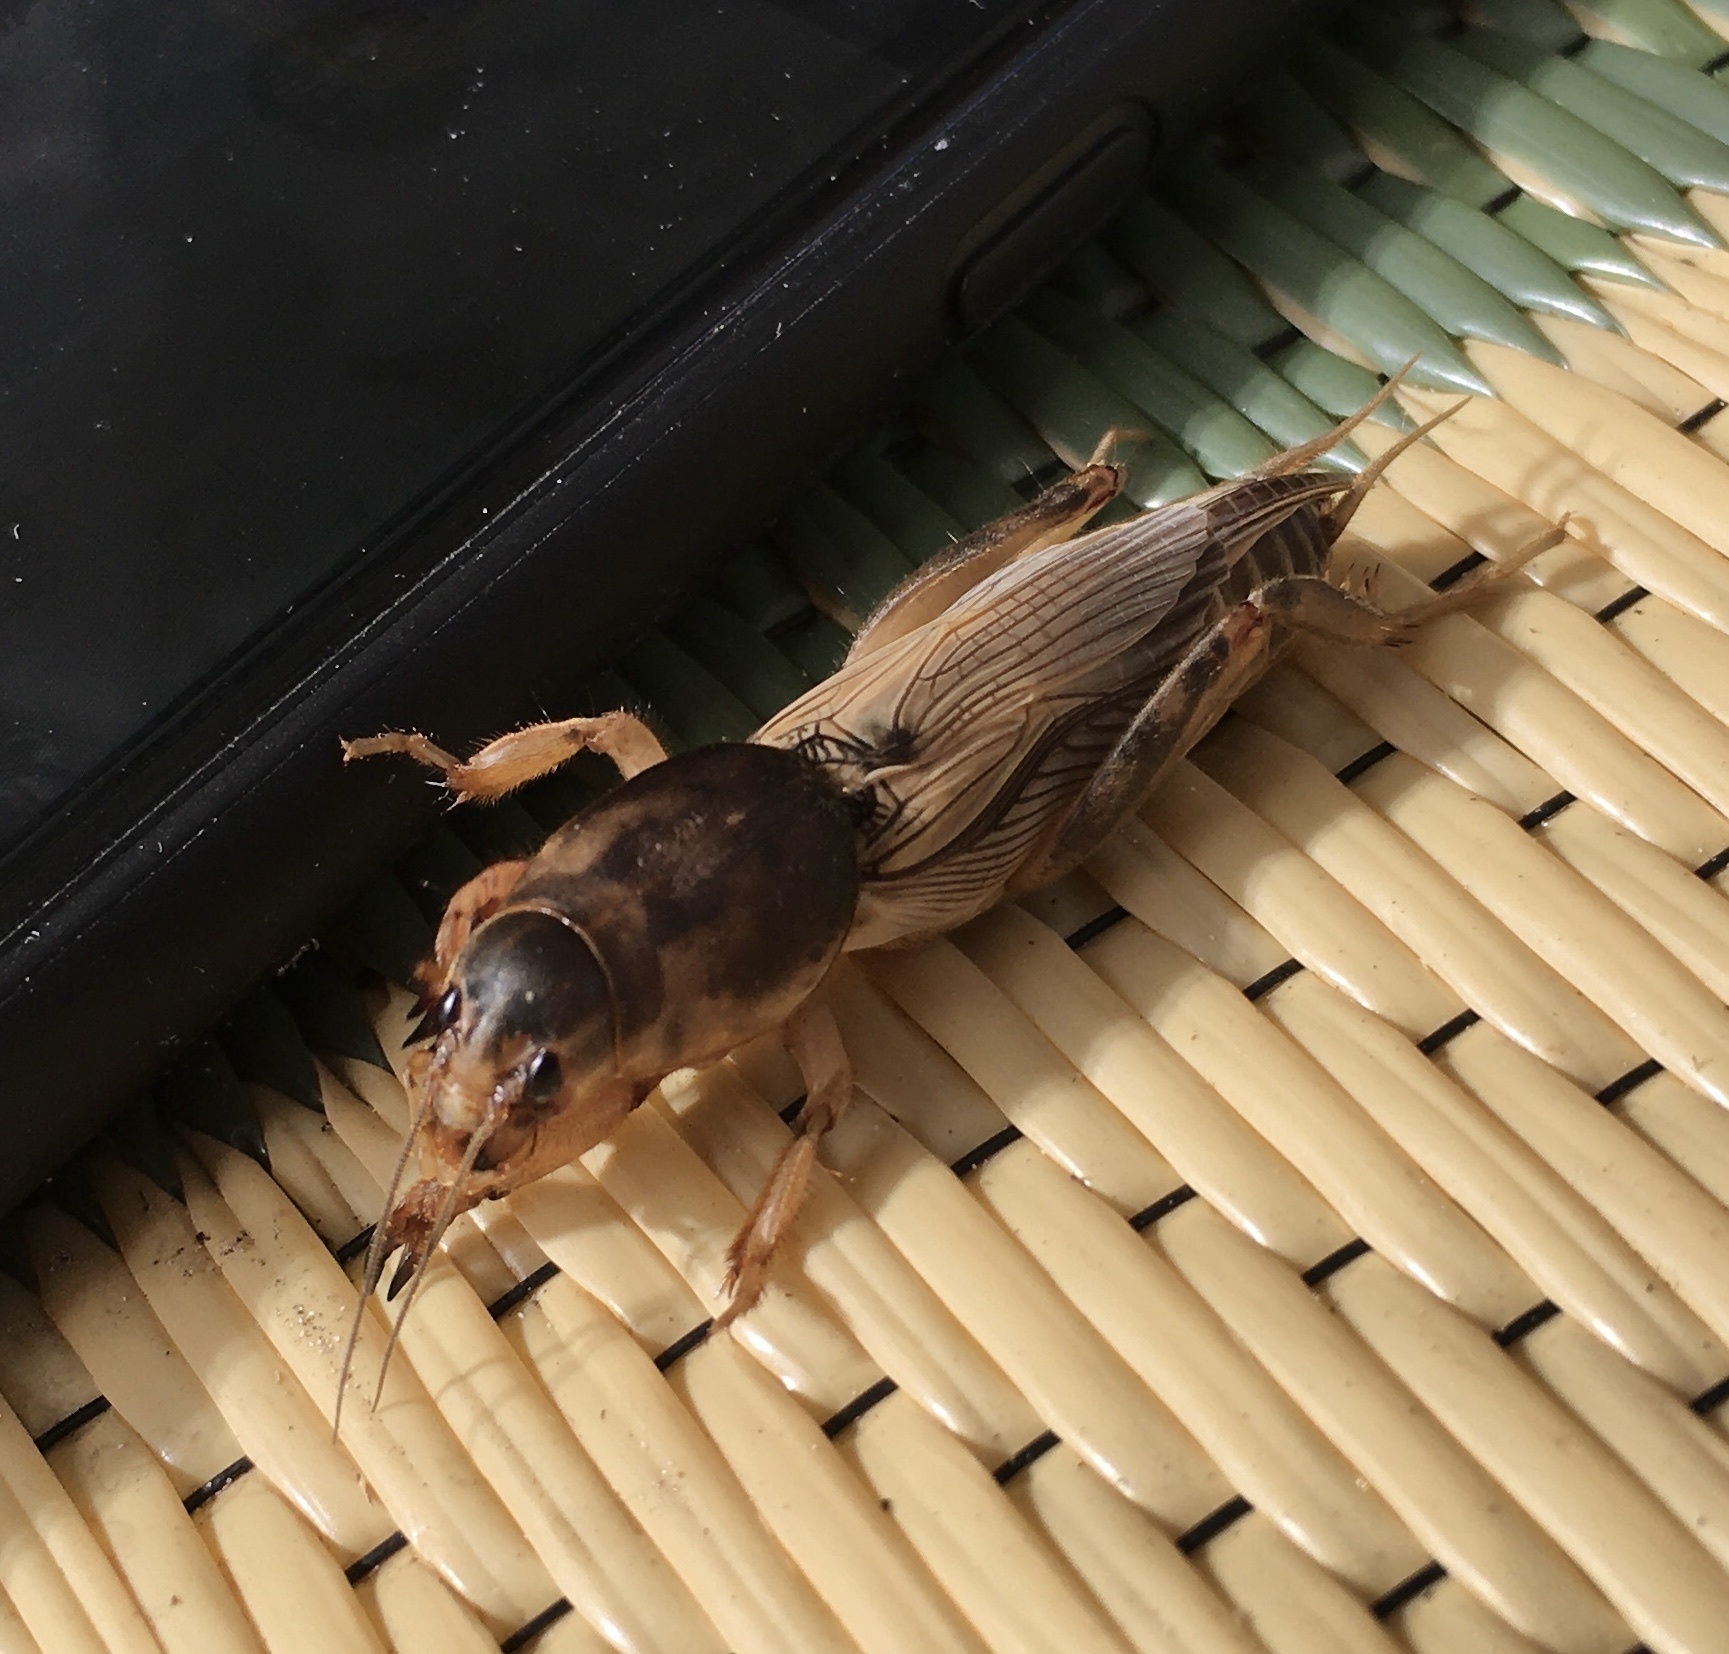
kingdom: Animalia
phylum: Arthropoda
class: Insecta
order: Orthoptera
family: Gryllotalpidae
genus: Neoscapteriscus
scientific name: Neoscapteriscus vicinus
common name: Tawny mole cricket
